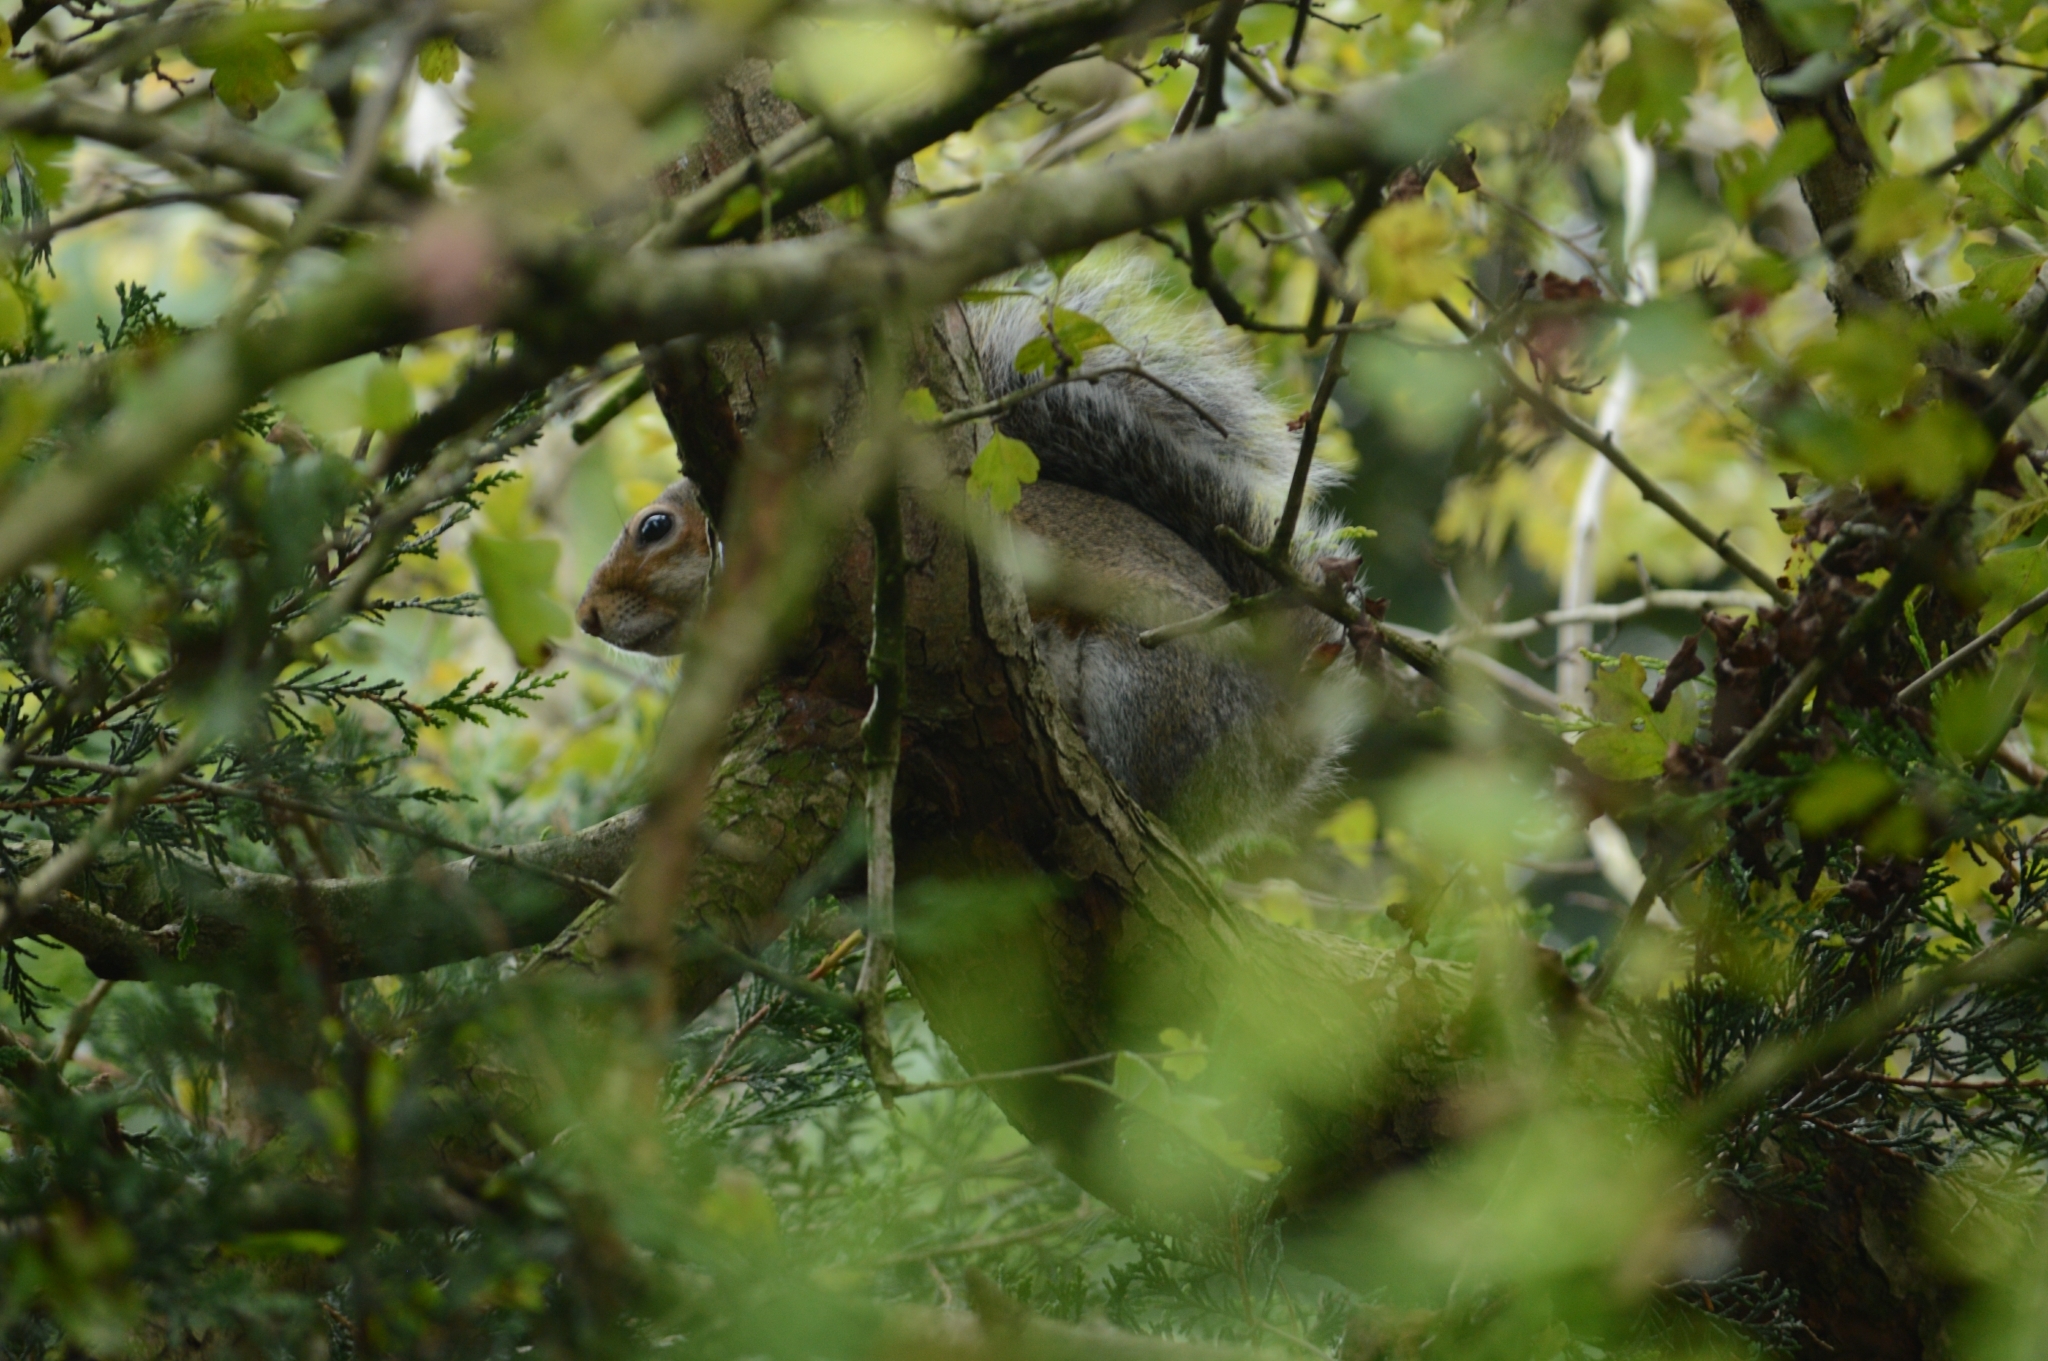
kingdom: Animalia
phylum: Chordata
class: Mammalia
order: Rodentia
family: Sciuridae
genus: Sciurus
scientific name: Sciurus carolinensis
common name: Eastern gray squirrel
